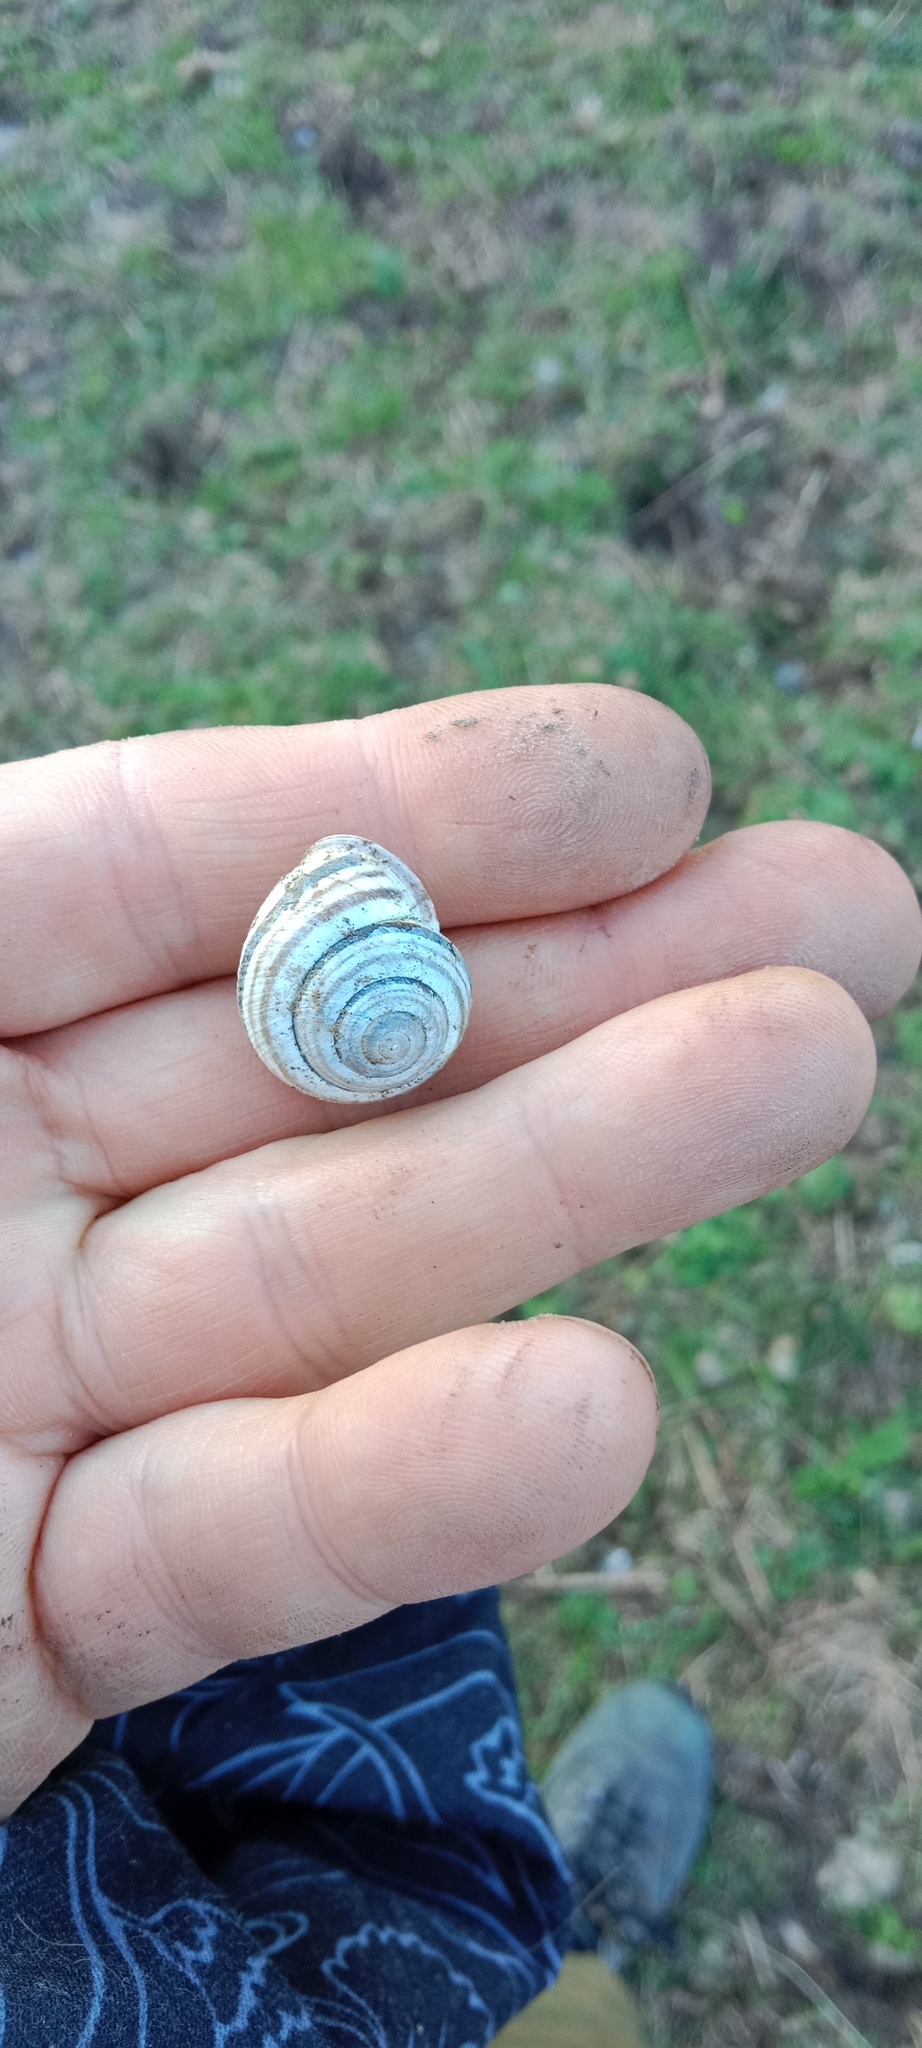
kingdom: Animalia
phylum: Mollusca
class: Gastropoda
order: Stylommatophora
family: Helicidae
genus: Caucasotachea
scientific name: Caucasotachea vindobonensis
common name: European helicid land snail
